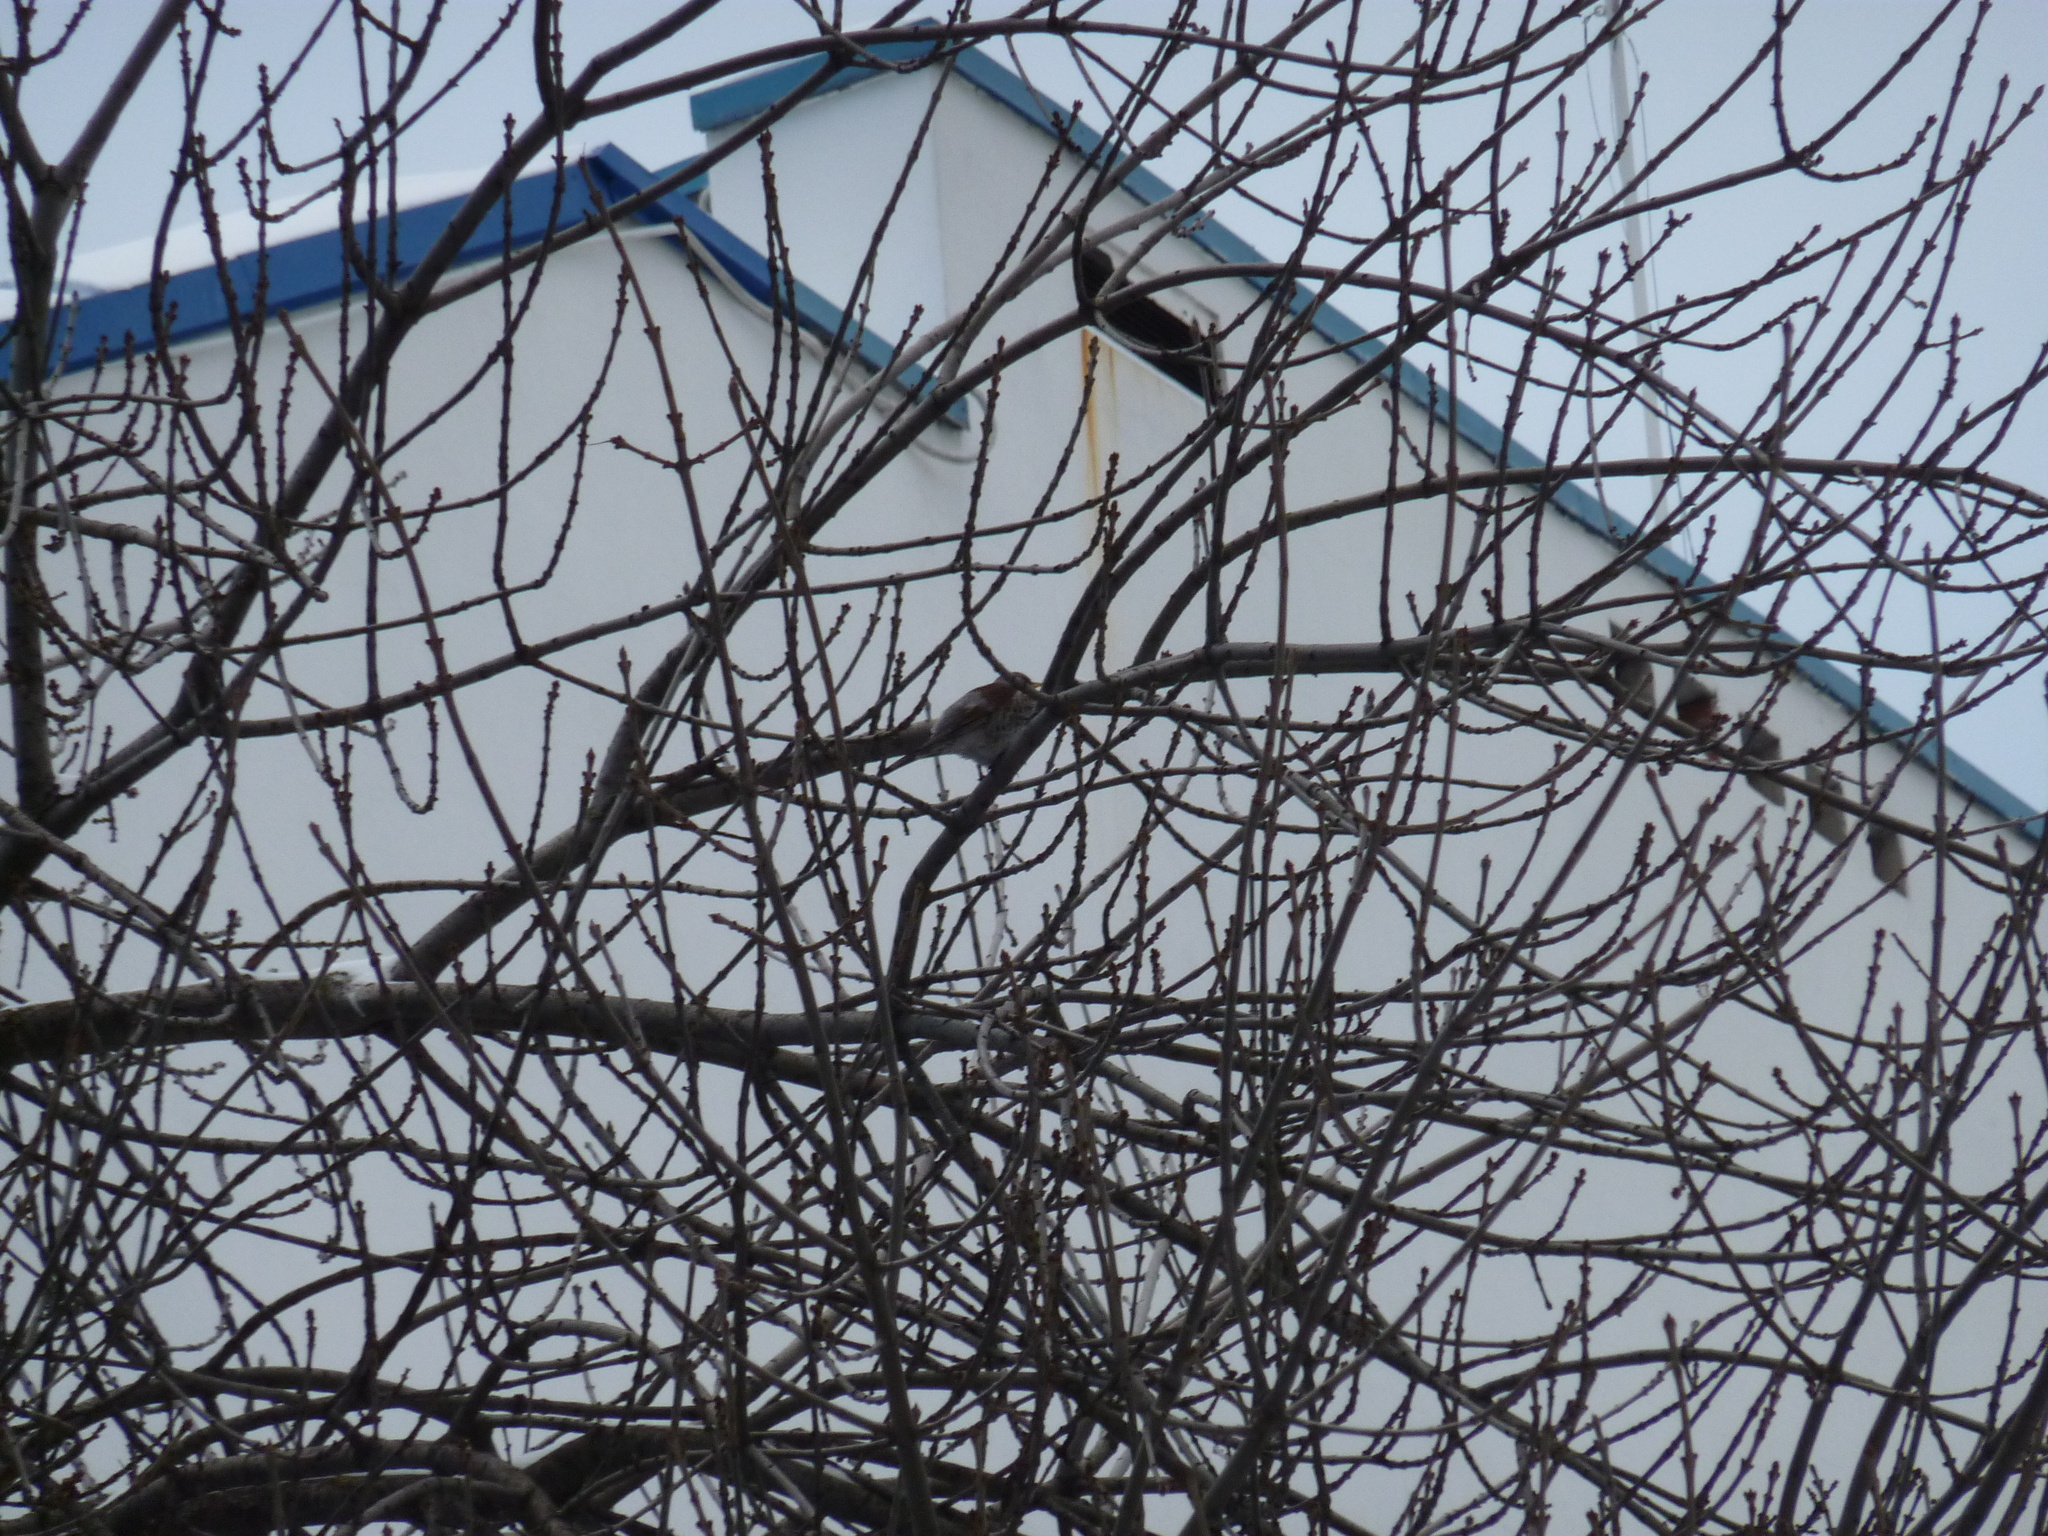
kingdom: Animalia
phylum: Chordata
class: Aves
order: Passeriformes
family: Turdidae
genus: Turdus
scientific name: Turdus pilaris
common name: Fieldfare
